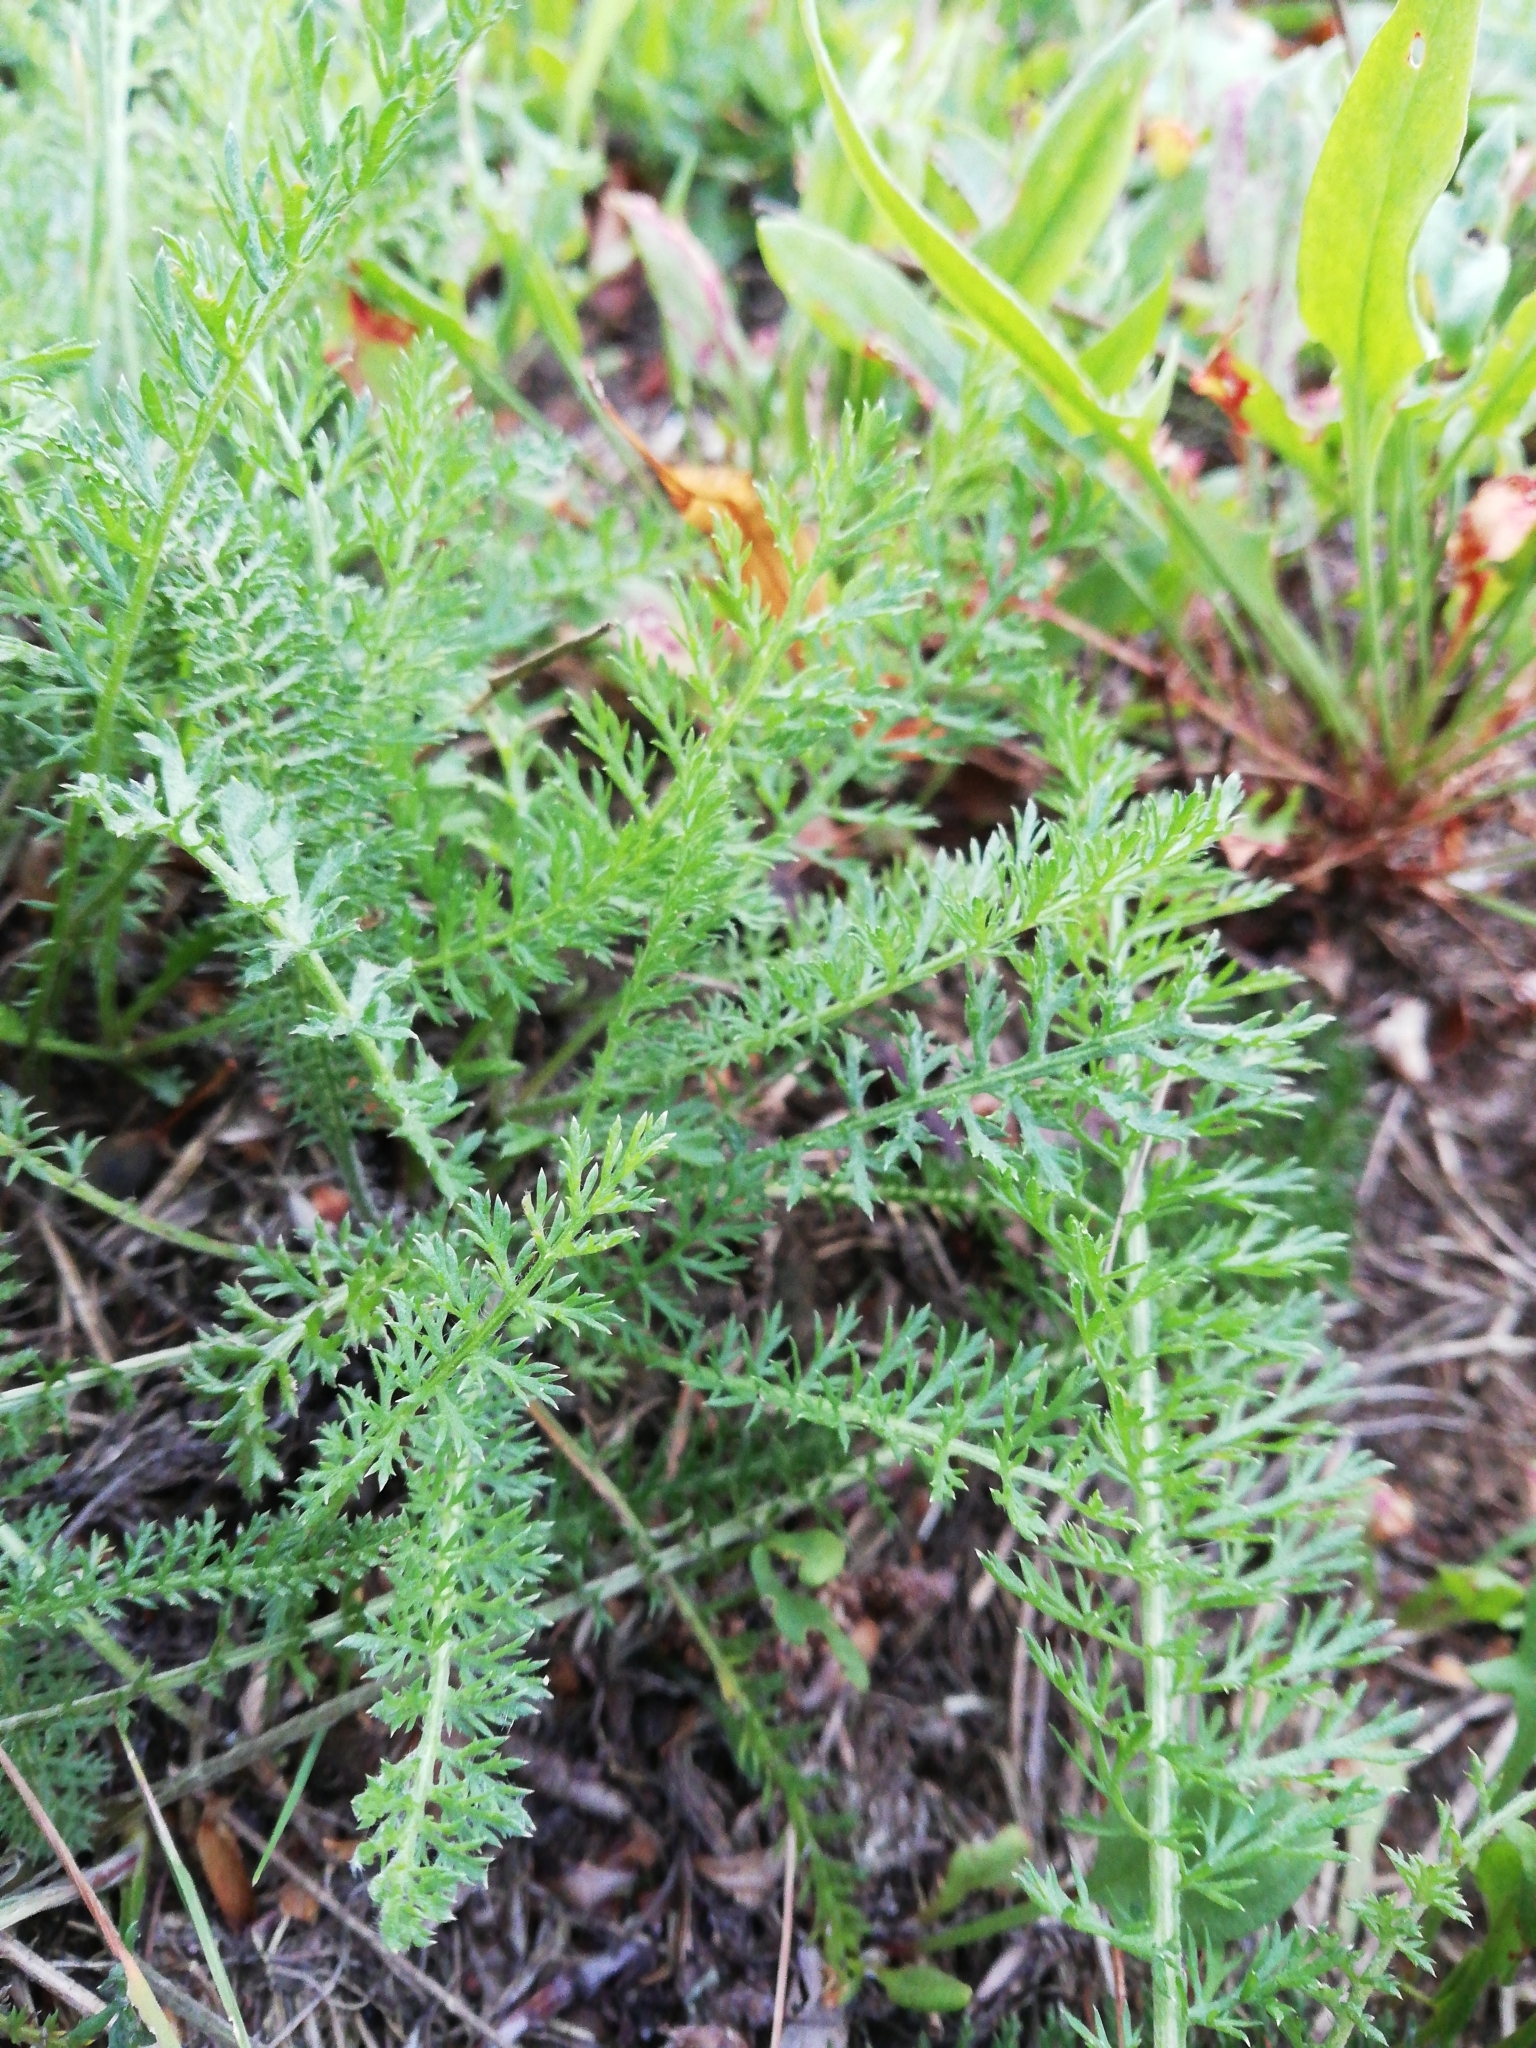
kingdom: Plantae
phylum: Tracheophyta
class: Magnoliopsida
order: Asterales
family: Asteraceae
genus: Achillea
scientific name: Achillea millefolium
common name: Yarrow
